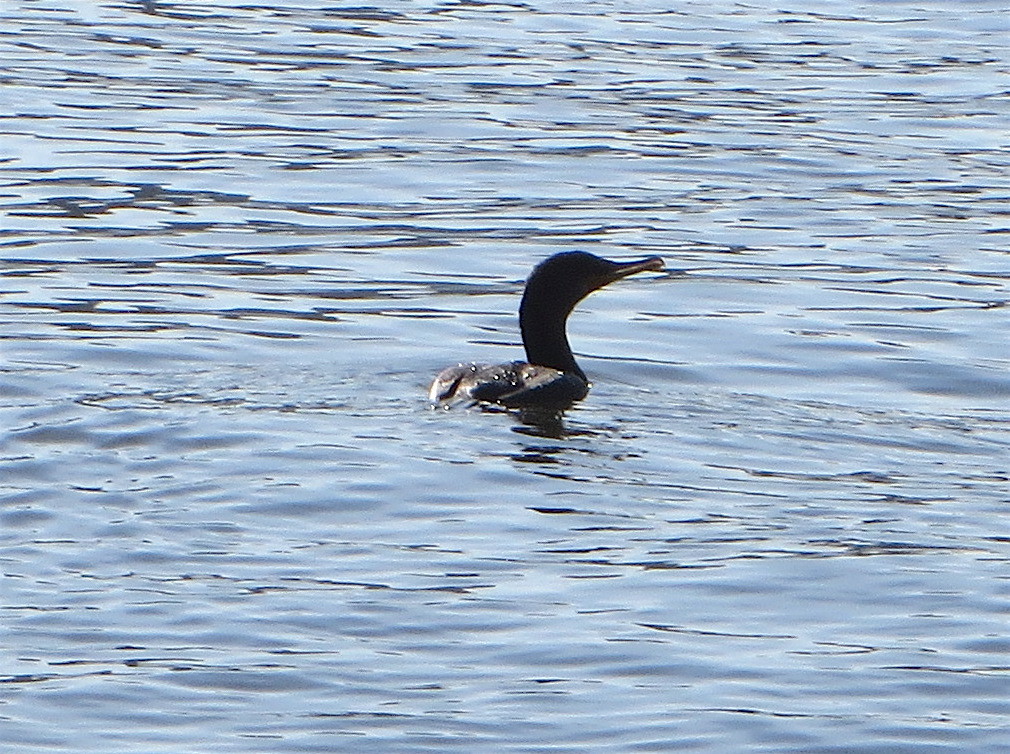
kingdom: Animalia
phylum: Chordata
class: Aves
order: Suliformes
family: Phalacrocoracidae
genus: Phalacrocorax
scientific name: Phalacrocorax auritus
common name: Double-crested cormorant
